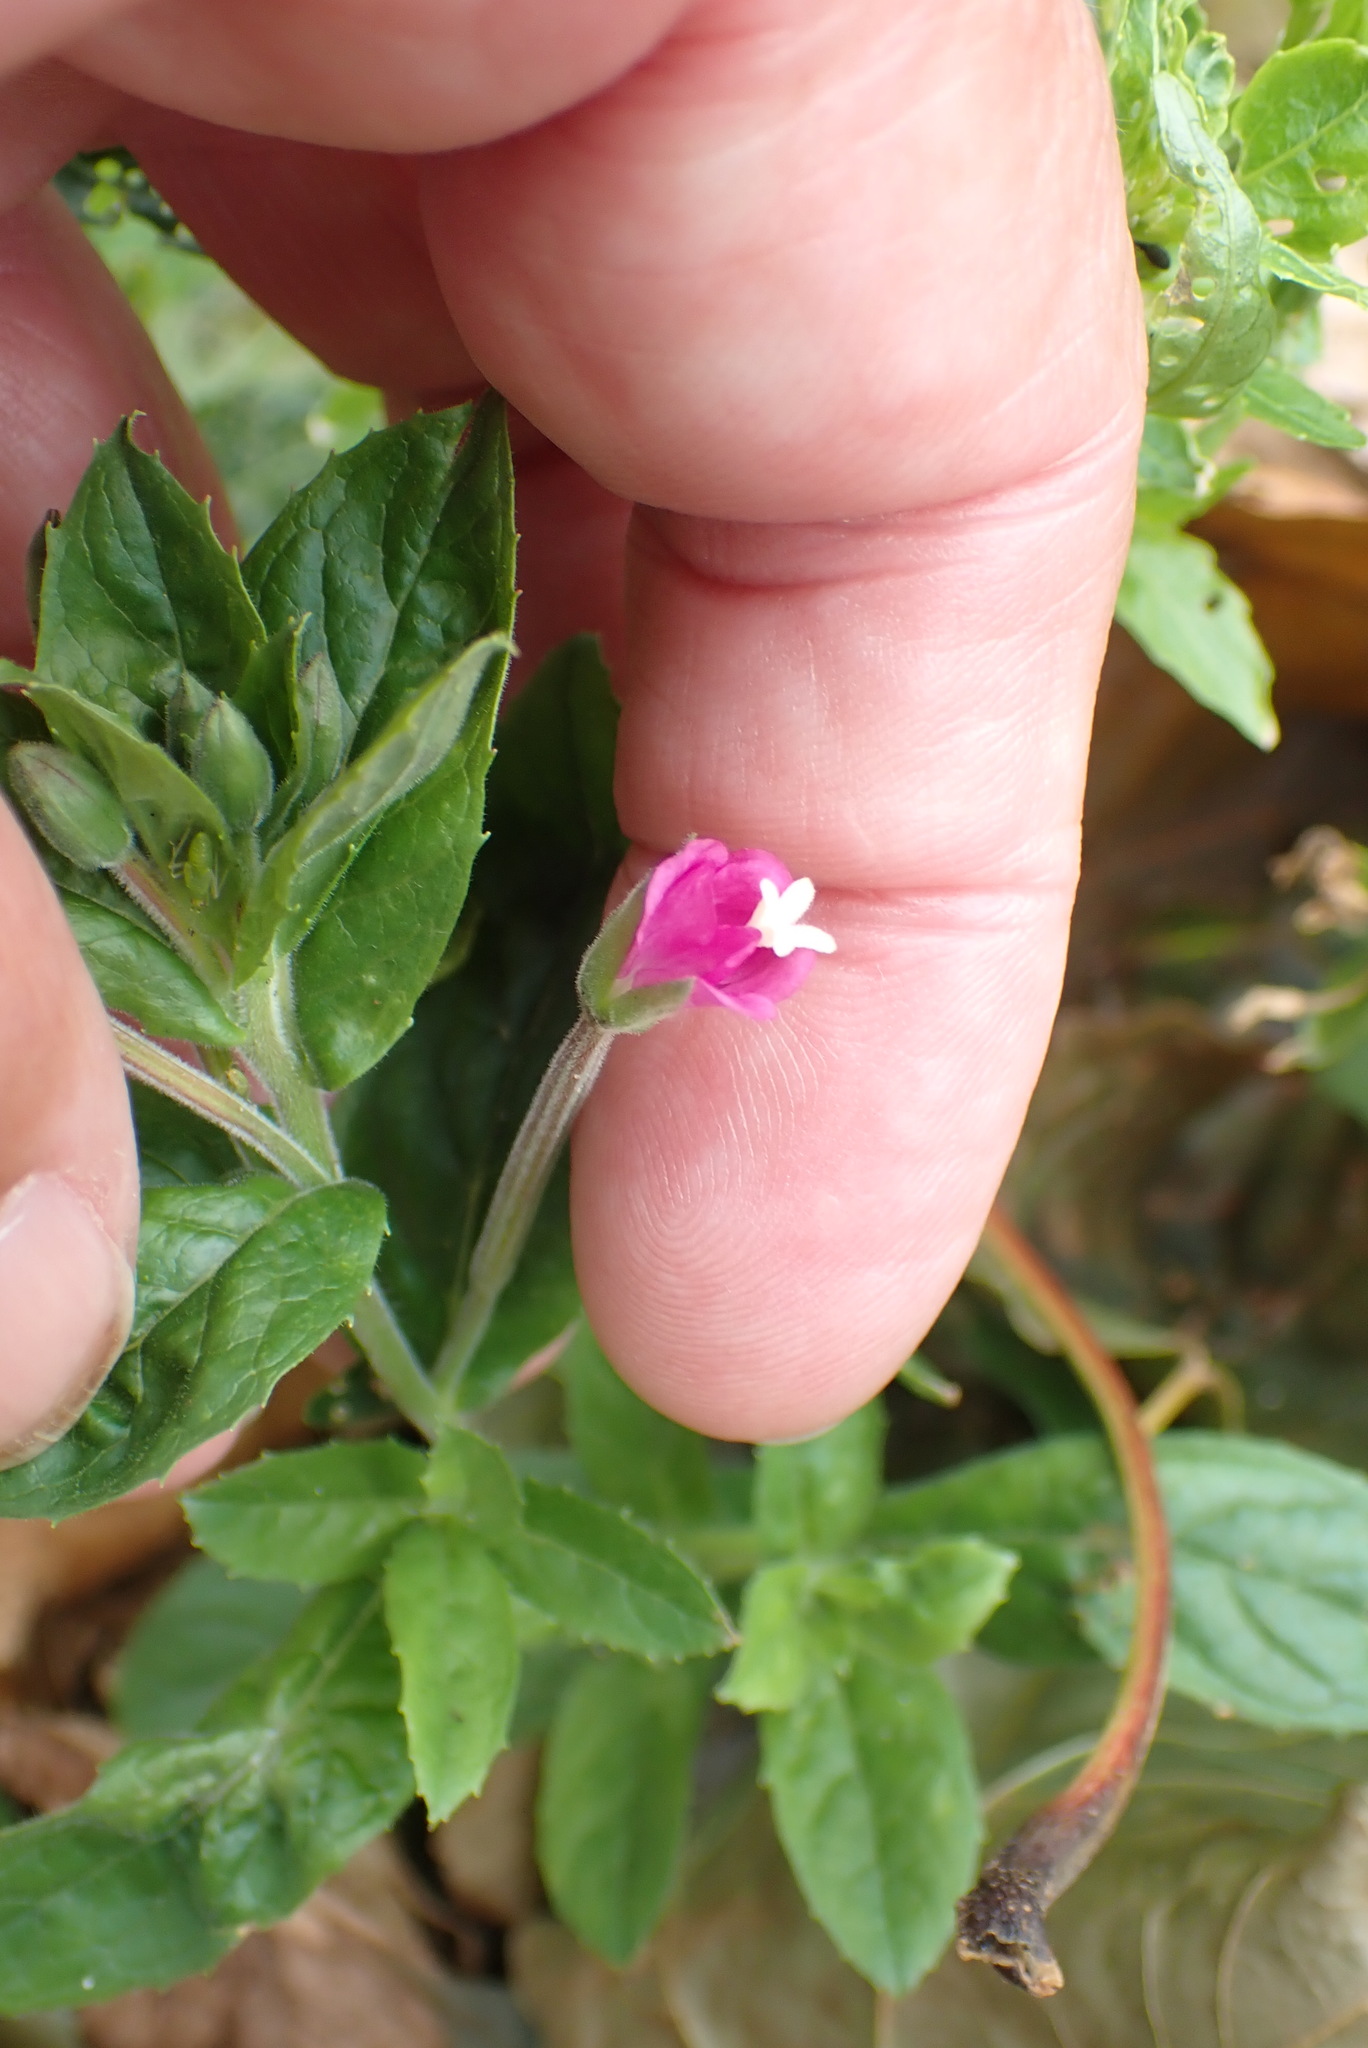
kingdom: Plantae
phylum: Tracheophyta
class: Magnoliopsida
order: Myrtales
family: Onagraceae
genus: Epilobium
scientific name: Epilobium hirsutum
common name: Great willowherb
